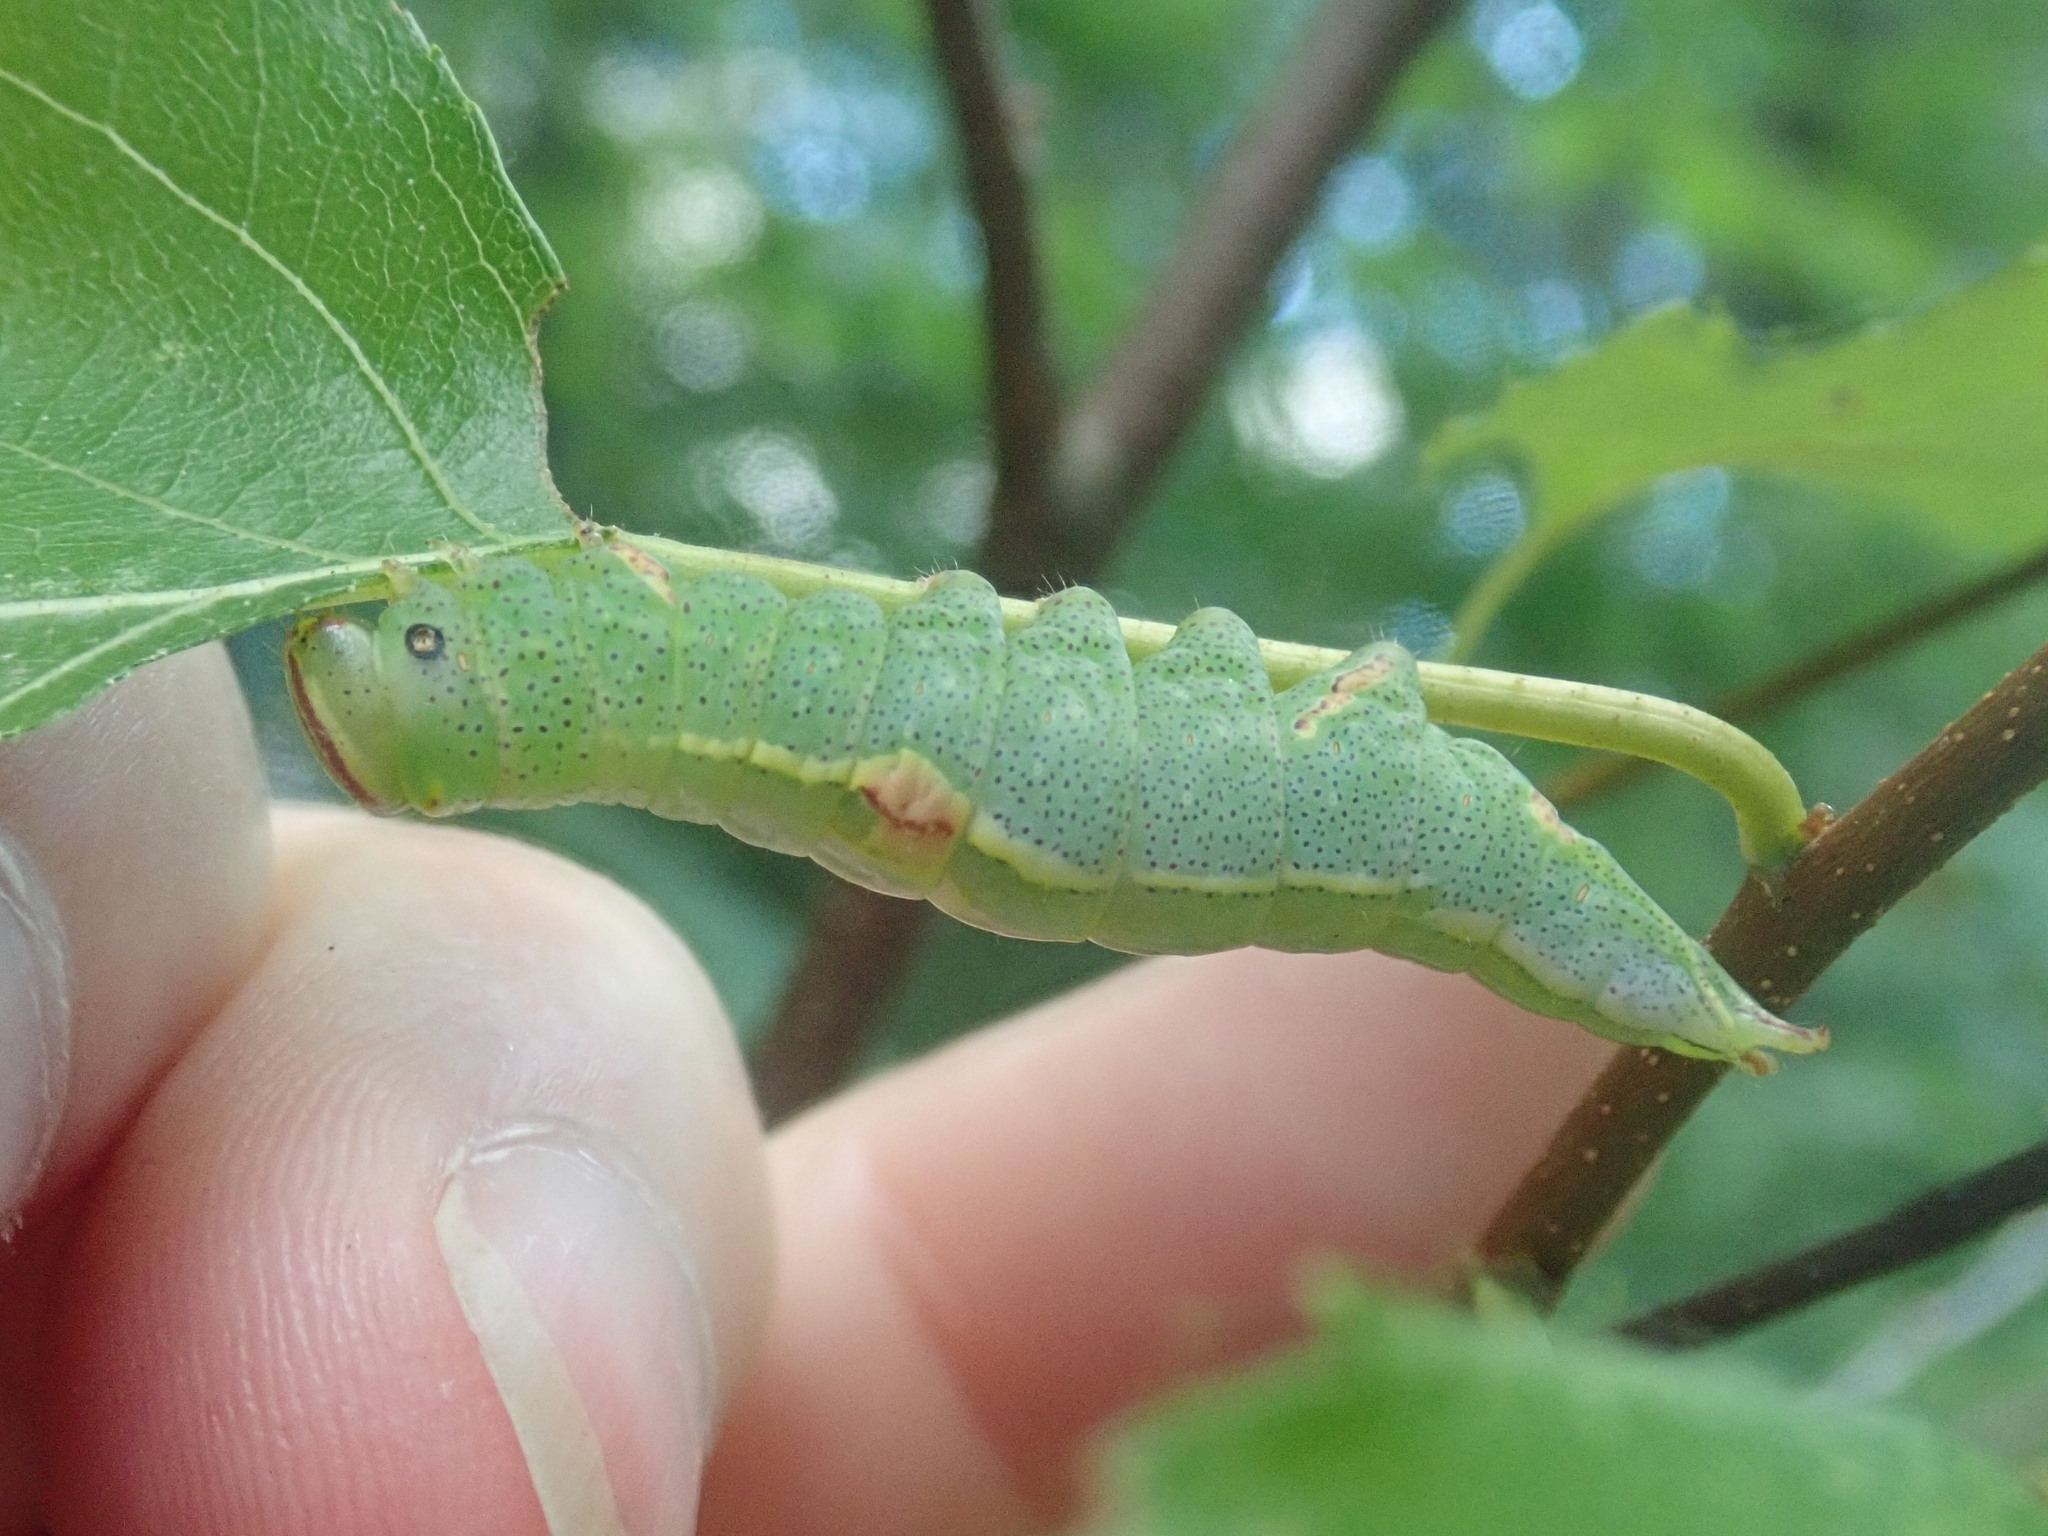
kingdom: Animalia
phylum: Arthropoda
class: Insecta
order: Lepidoptera
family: Notodontidae
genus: Disphragis
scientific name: Disphragis Cecrita guttivitta
